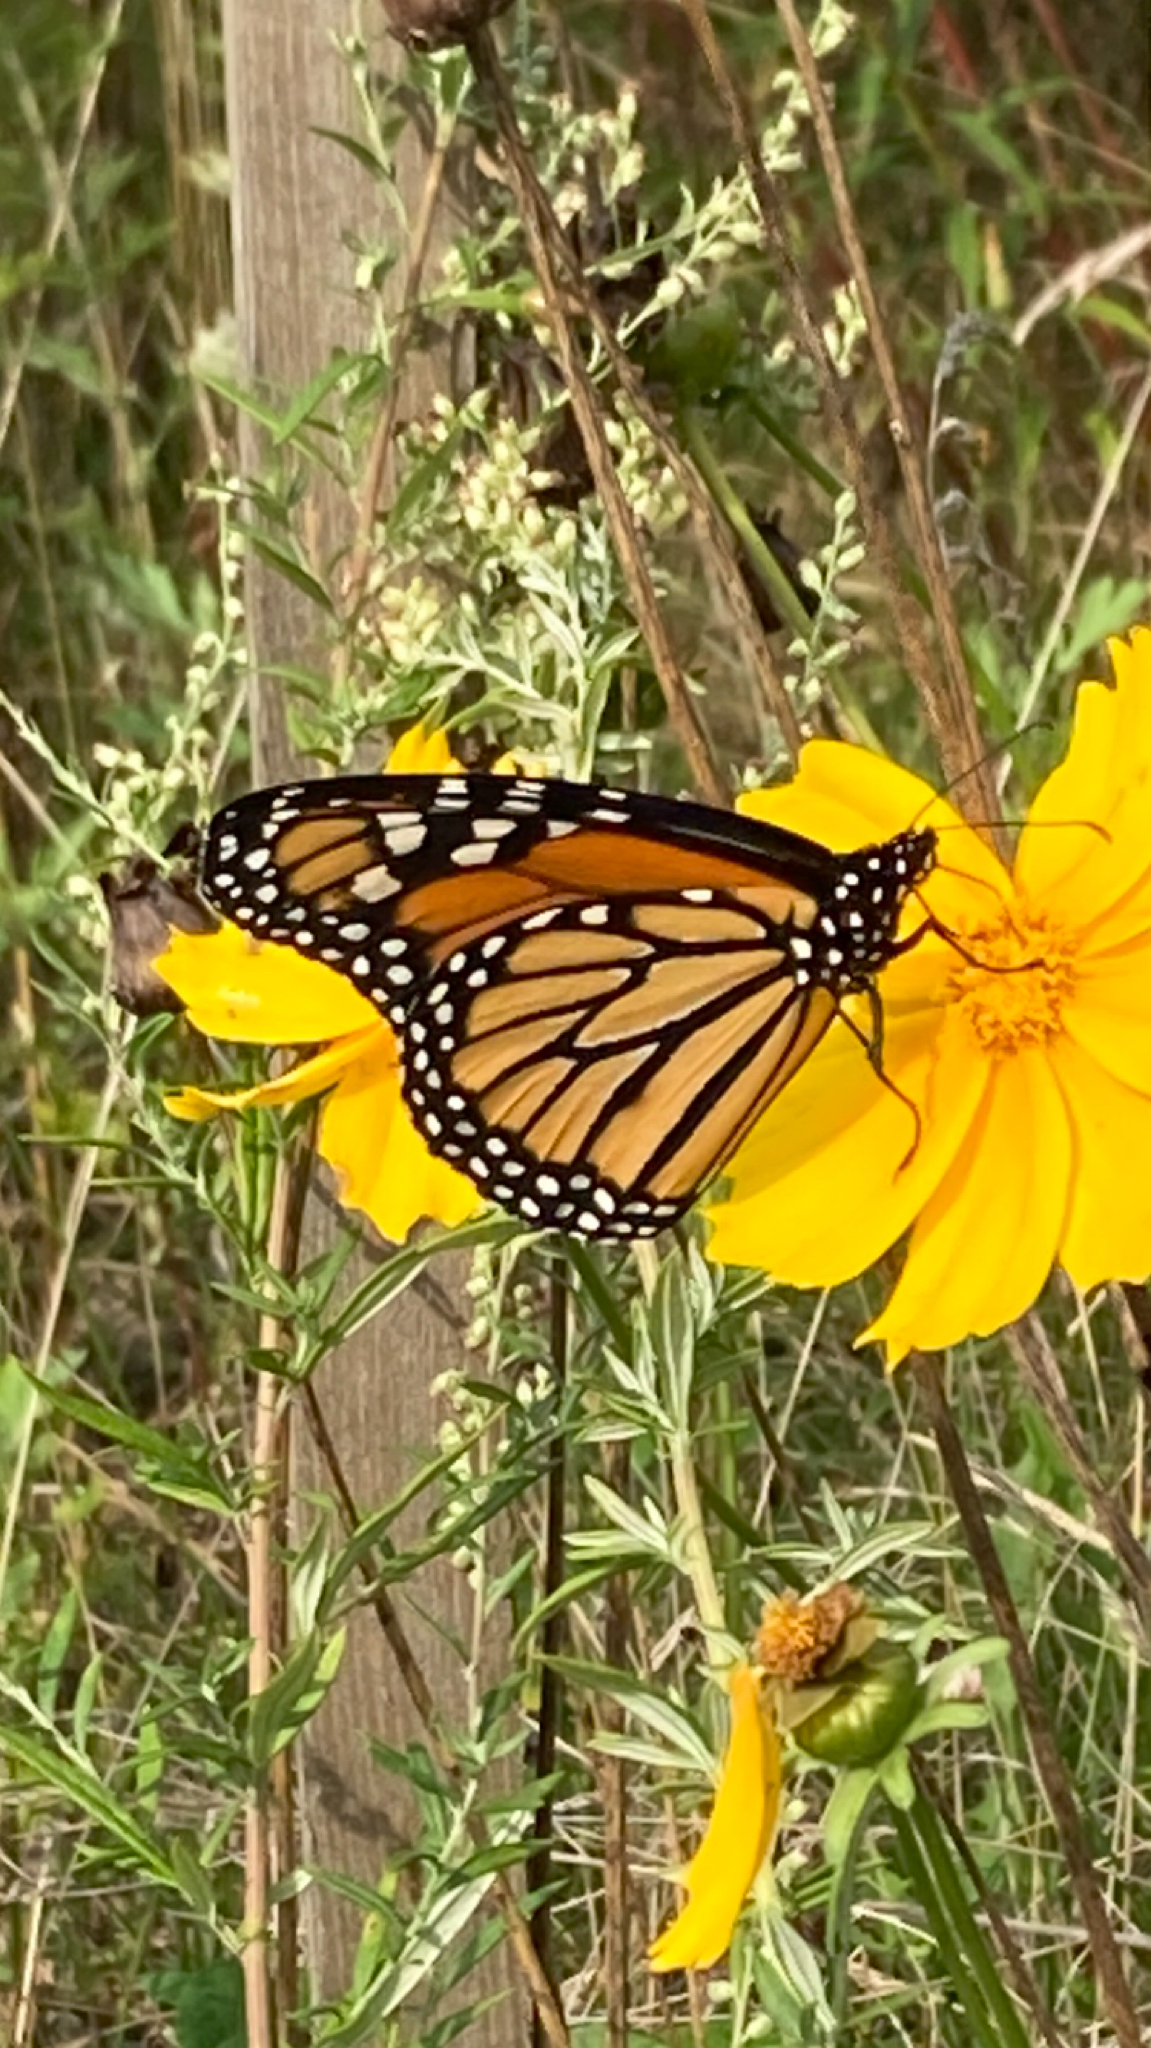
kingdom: Animalia
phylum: Arthropoda
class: Insecta
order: Lepidoptera
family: Nymphalidae
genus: Danaus
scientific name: Danaus plexippus
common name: Monarch
